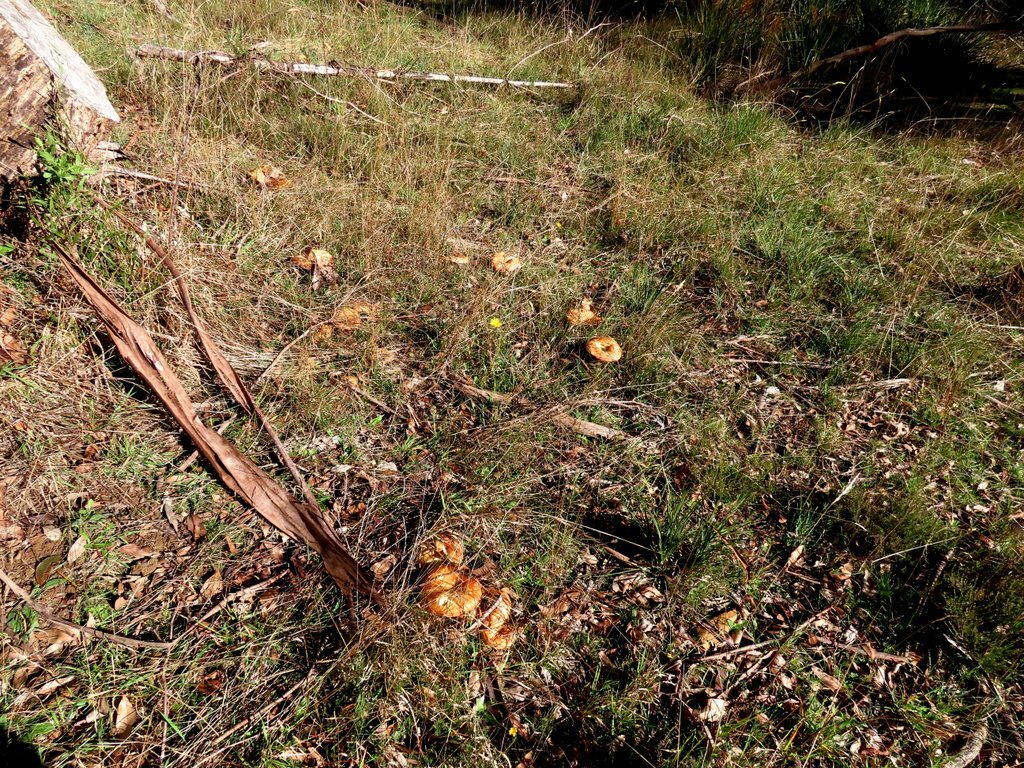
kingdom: Fungi
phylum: Basidiomycota
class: Agaricomycetes
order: Russulales
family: Russulaceae
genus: Lactarius
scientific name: Lactarius deliciosus
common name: Saffron milk-cap
